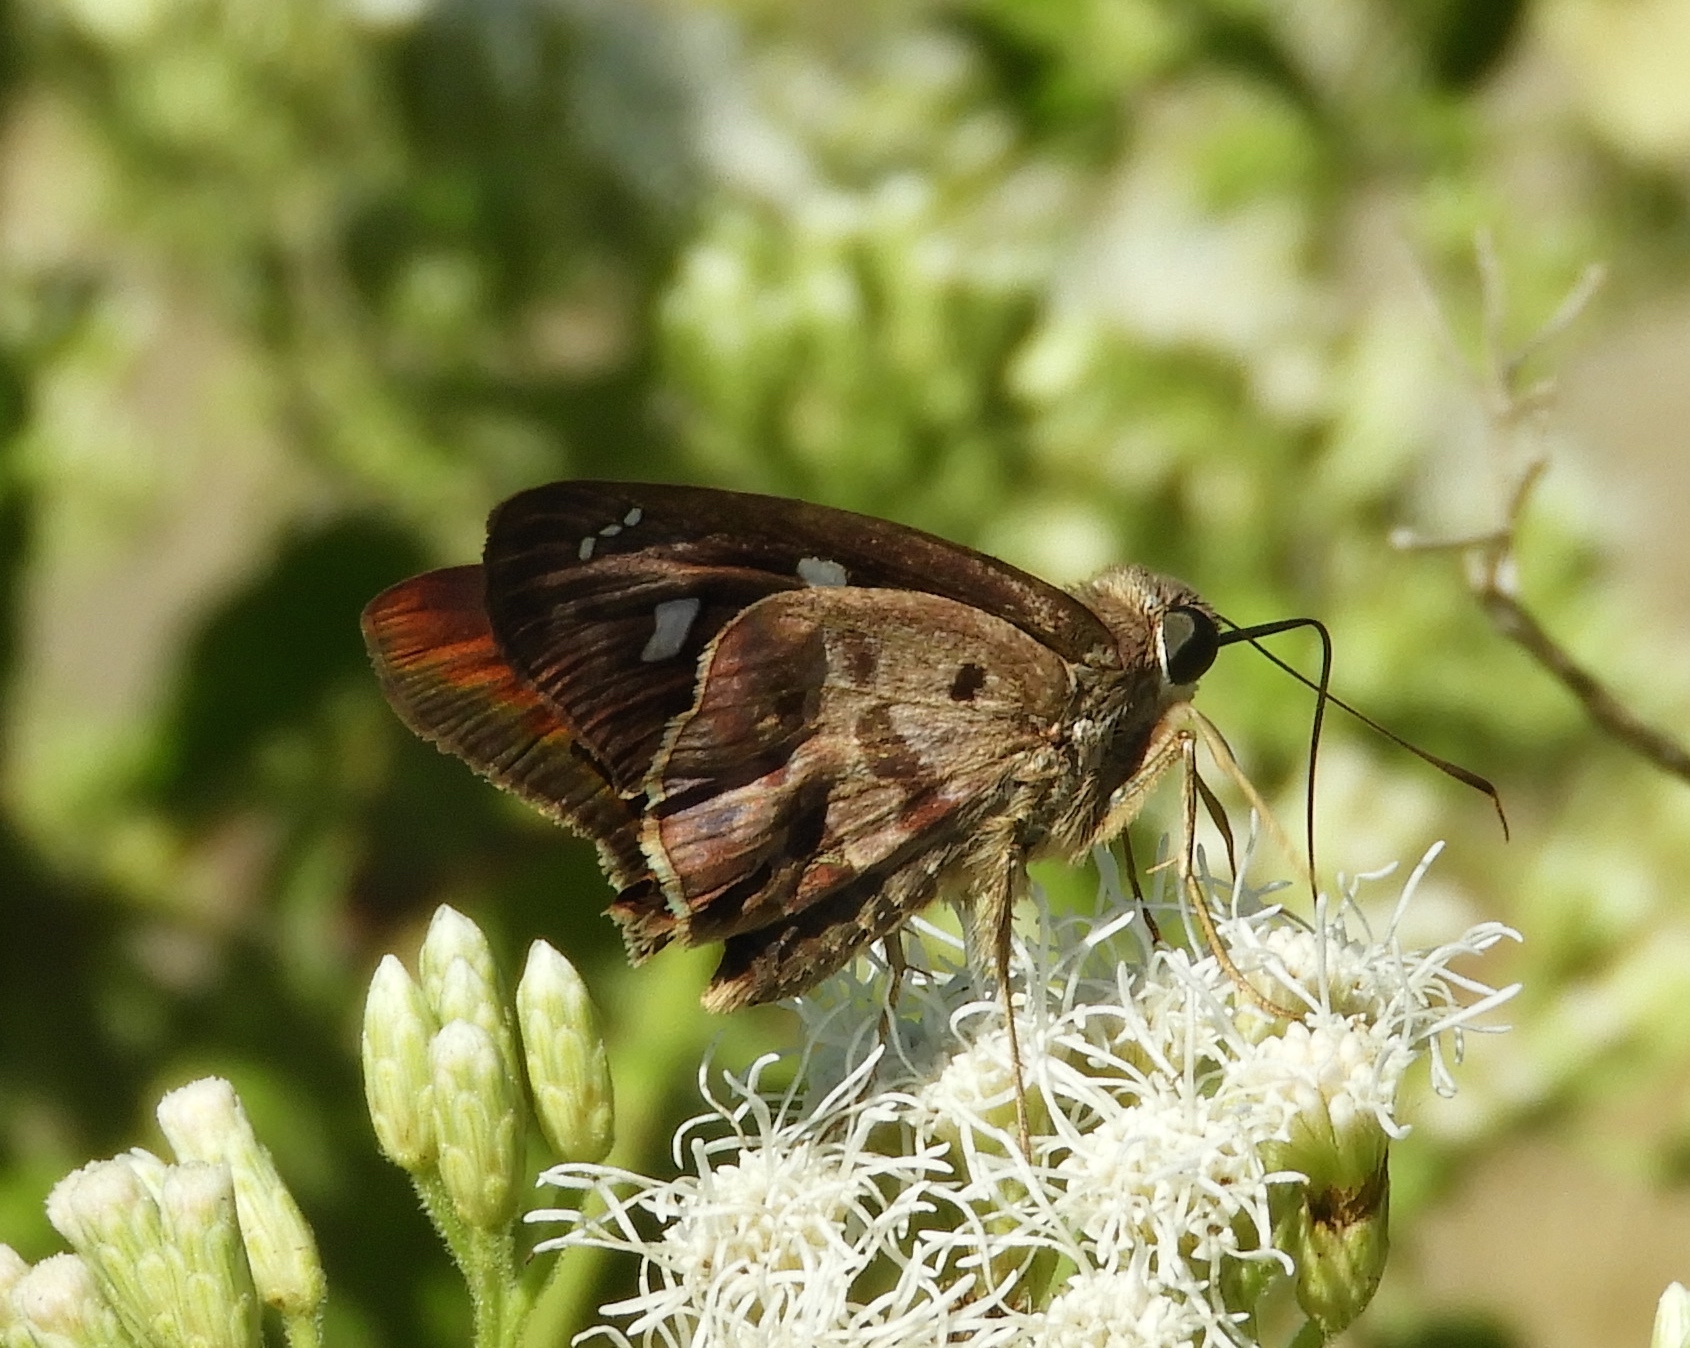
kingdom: Animalia
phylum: Arthropoda
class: Insecta
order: Lepidoptera
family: Hesperiidae
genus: Polygonus
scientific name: Polygonus leo
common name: Hammoch skipper
